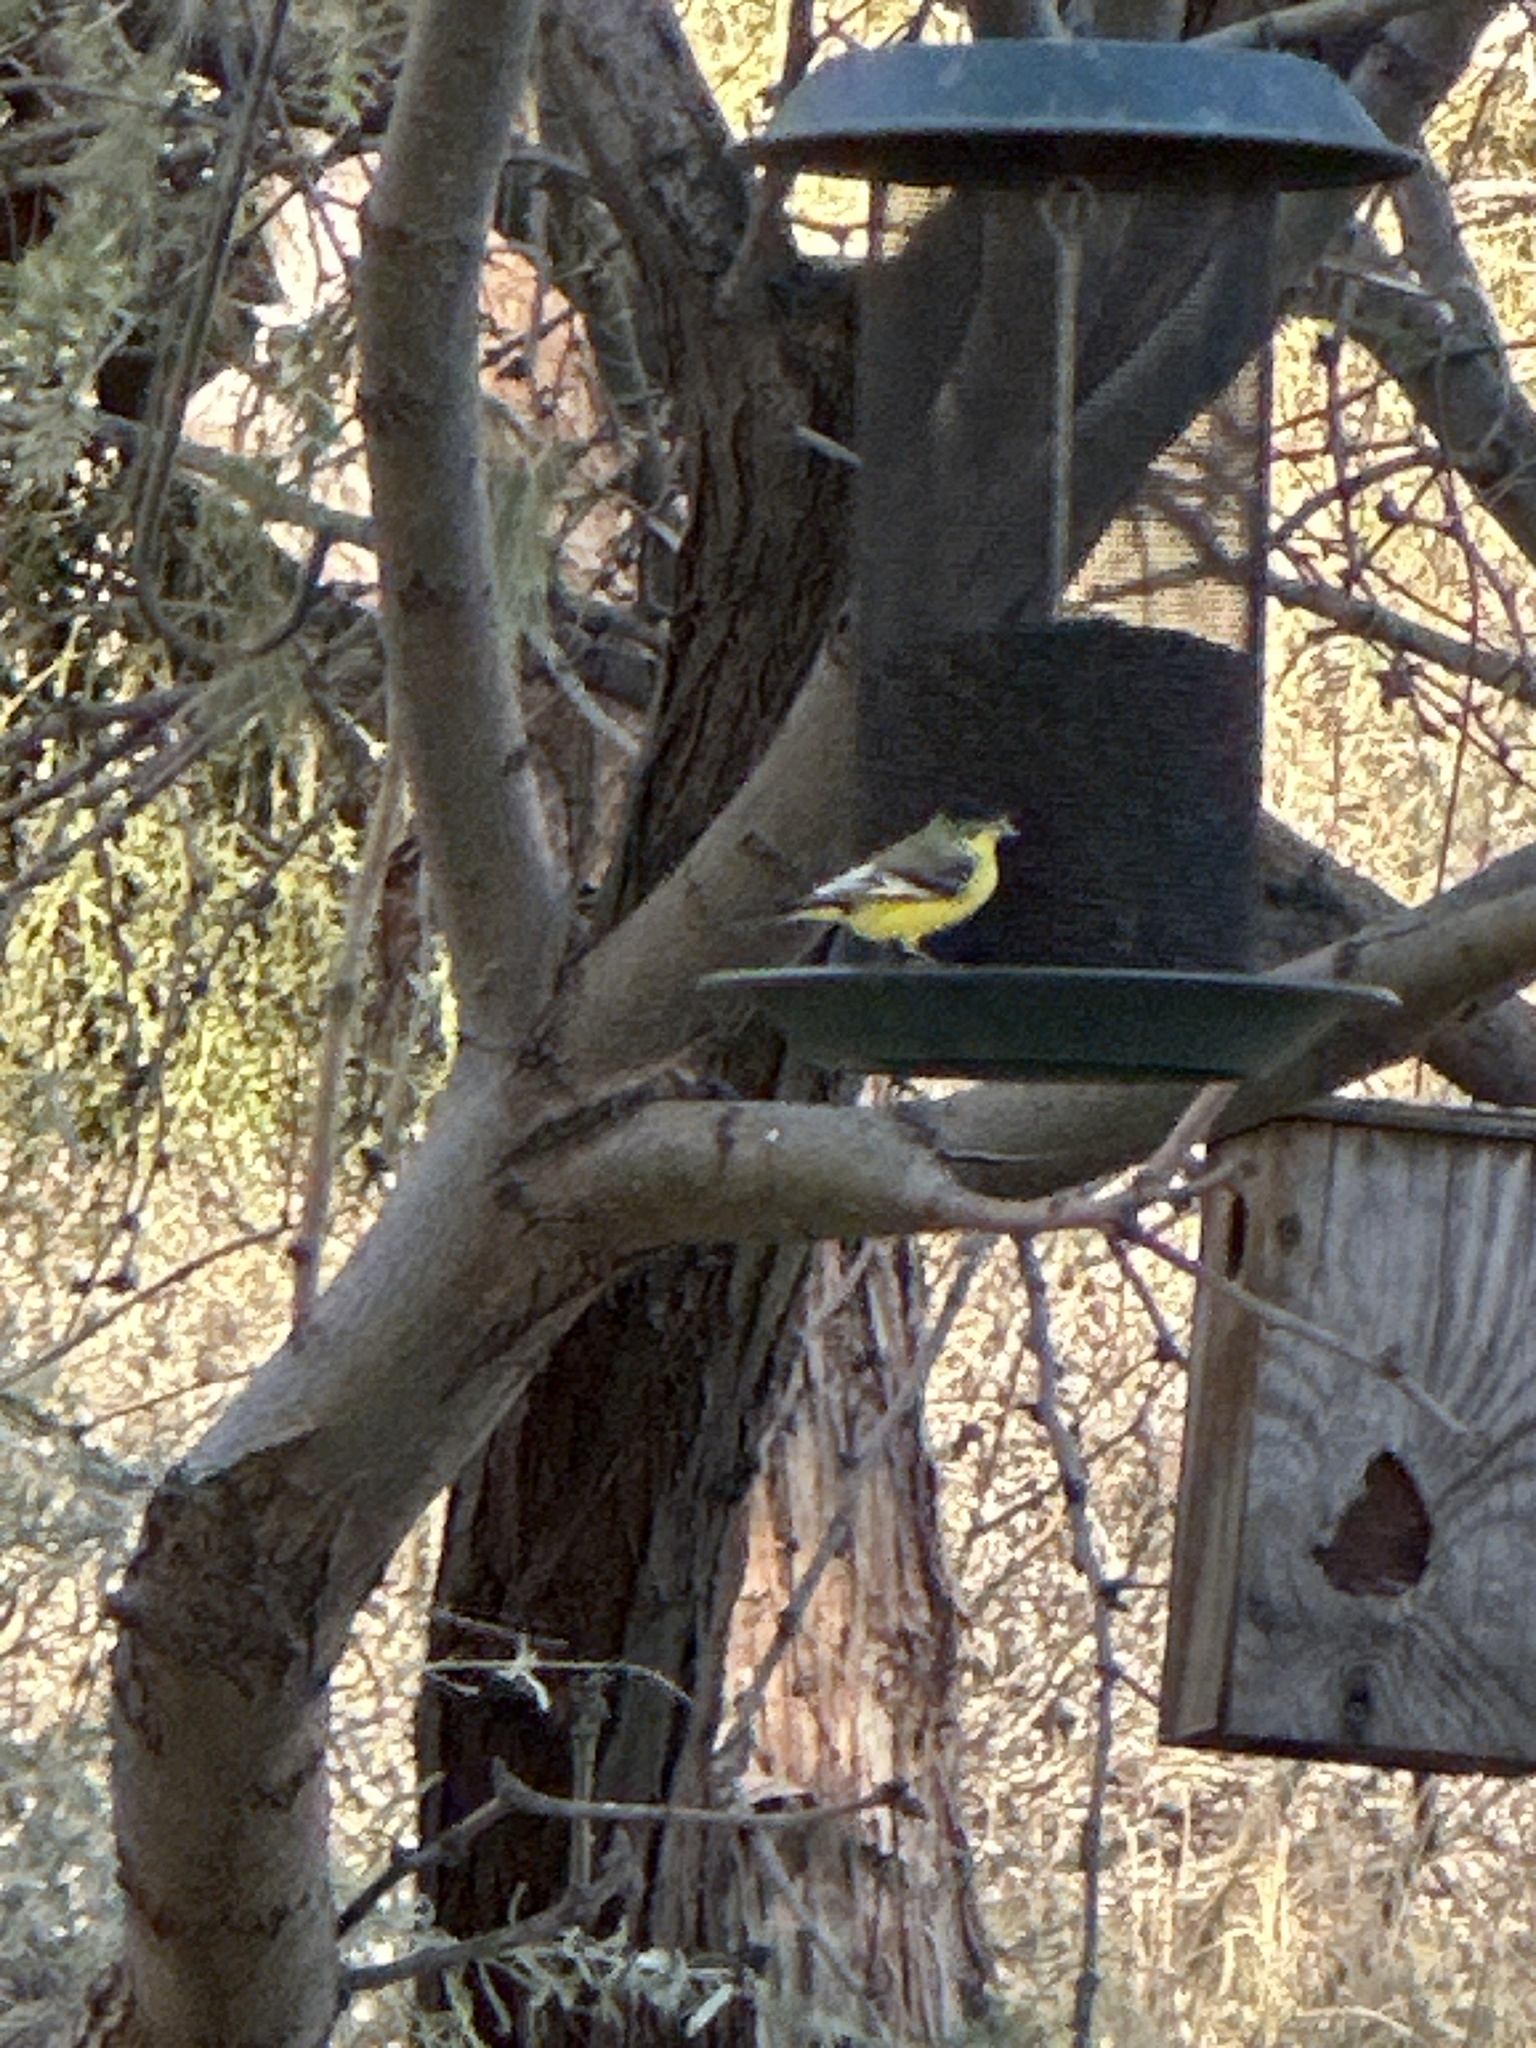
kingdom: Animalia
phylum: Chordata
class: Aves
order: Passeriformes
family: Fringillidae
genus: Spinus
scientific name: Spinus psaltria
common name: Lesser goldfinch
